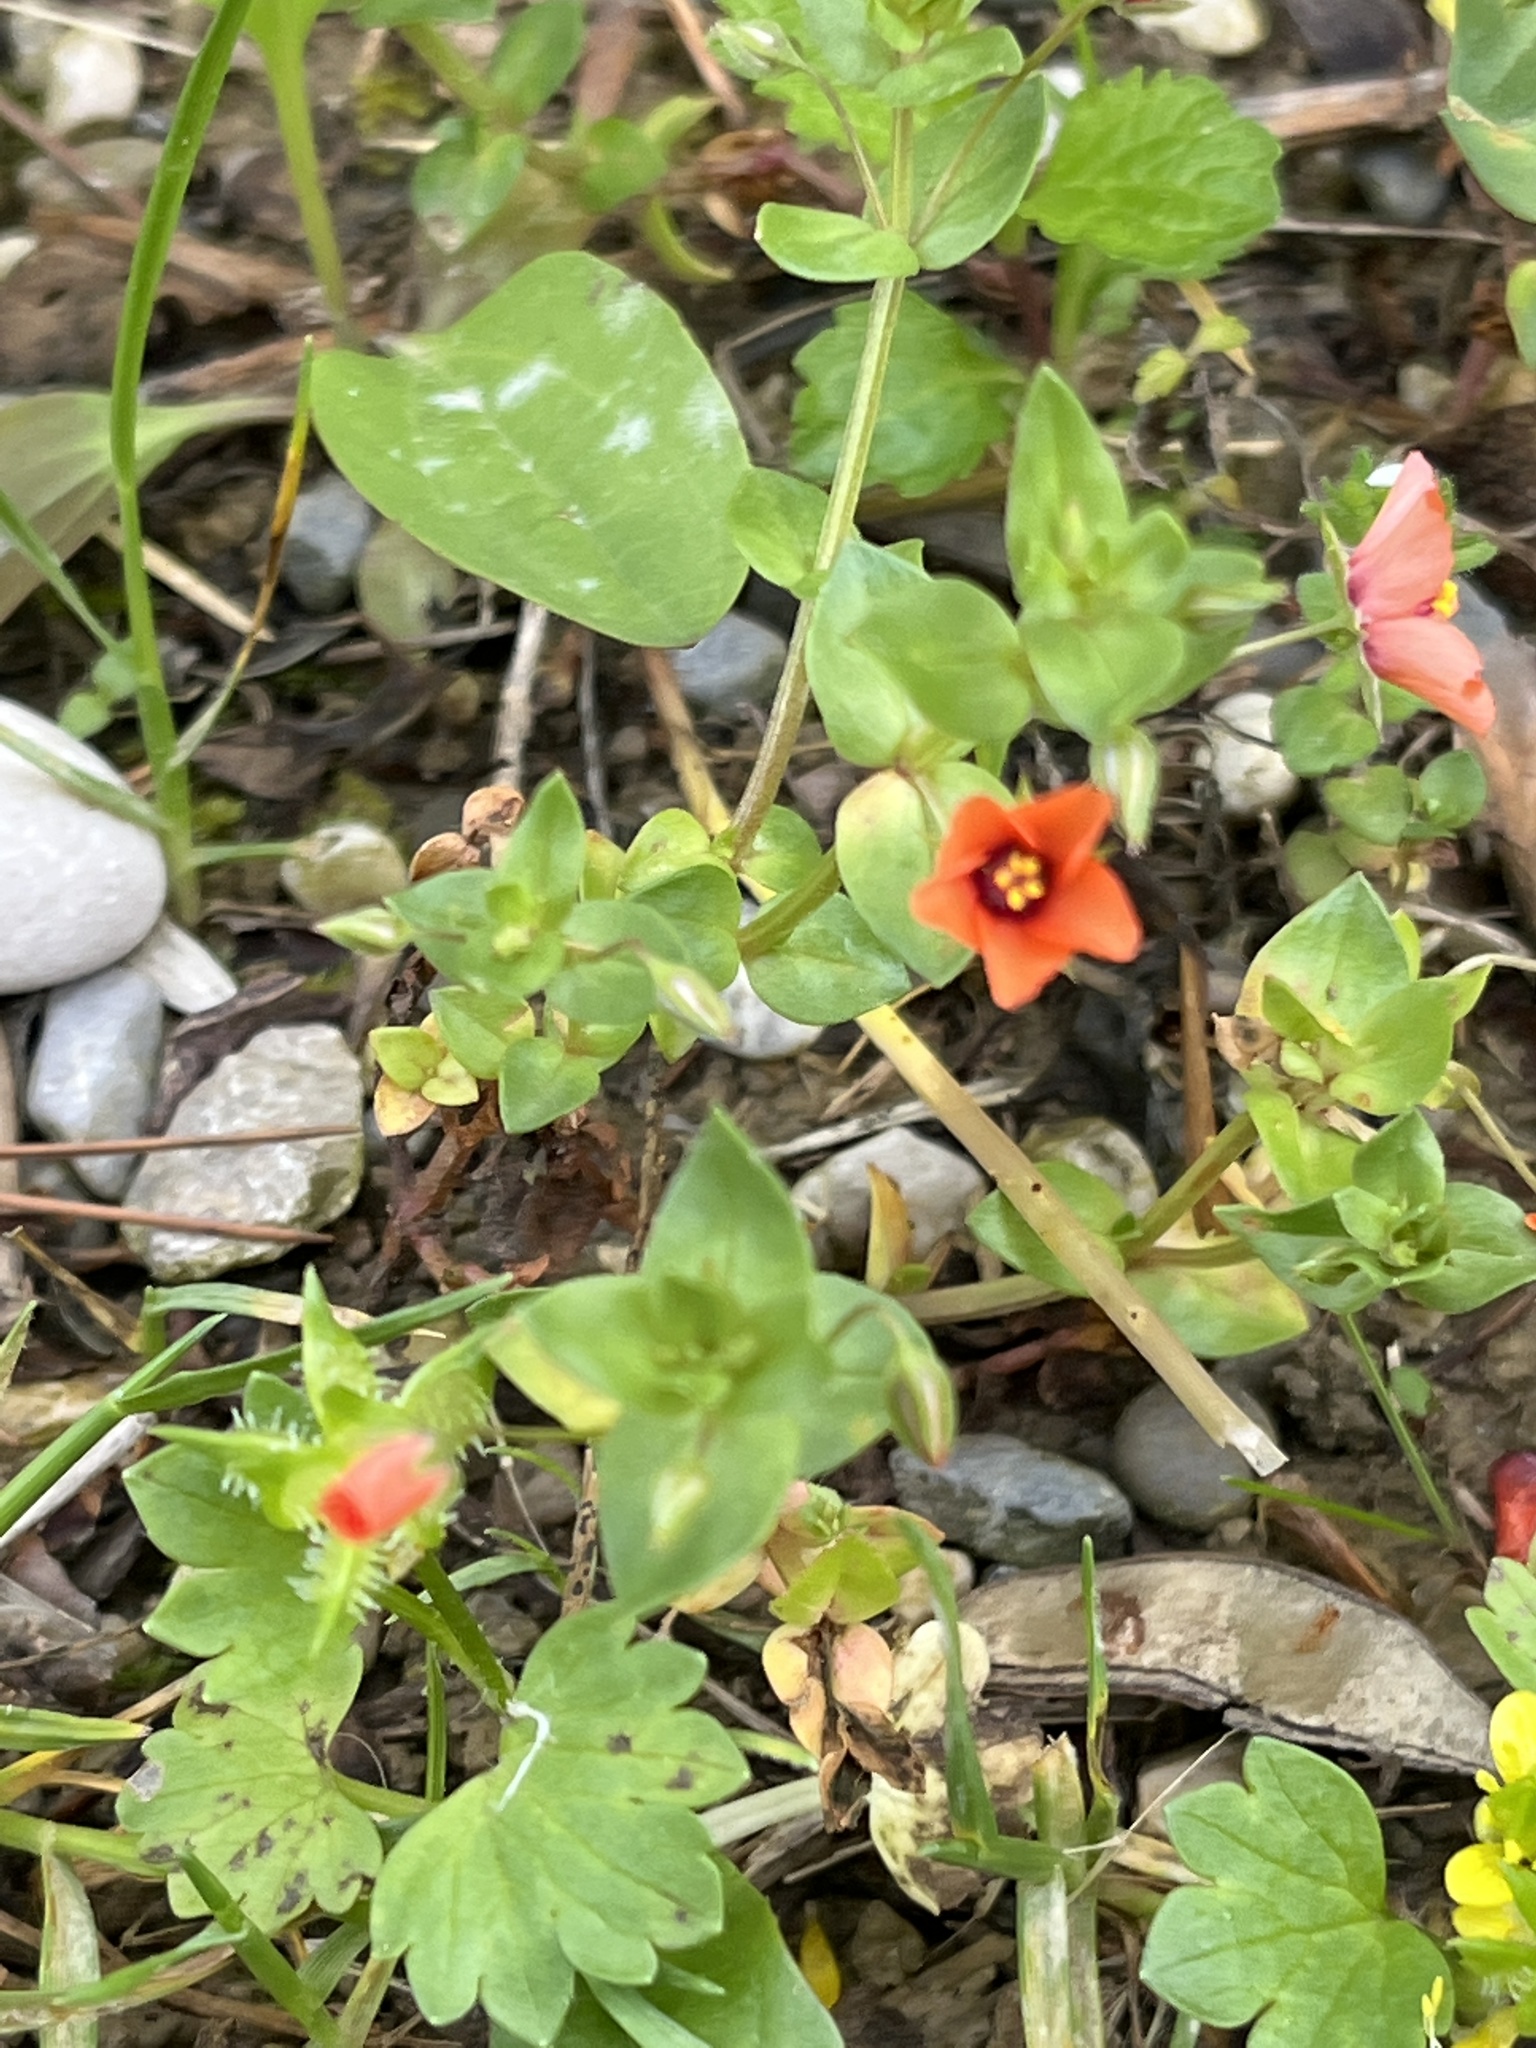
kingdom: Plantae
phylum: Tracheophyta
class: Magnoliopsida
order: Ericales
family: Primulaceae
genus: Lysimachia
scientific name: Lysimachia arvensis
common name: Scarlet pimpernel
